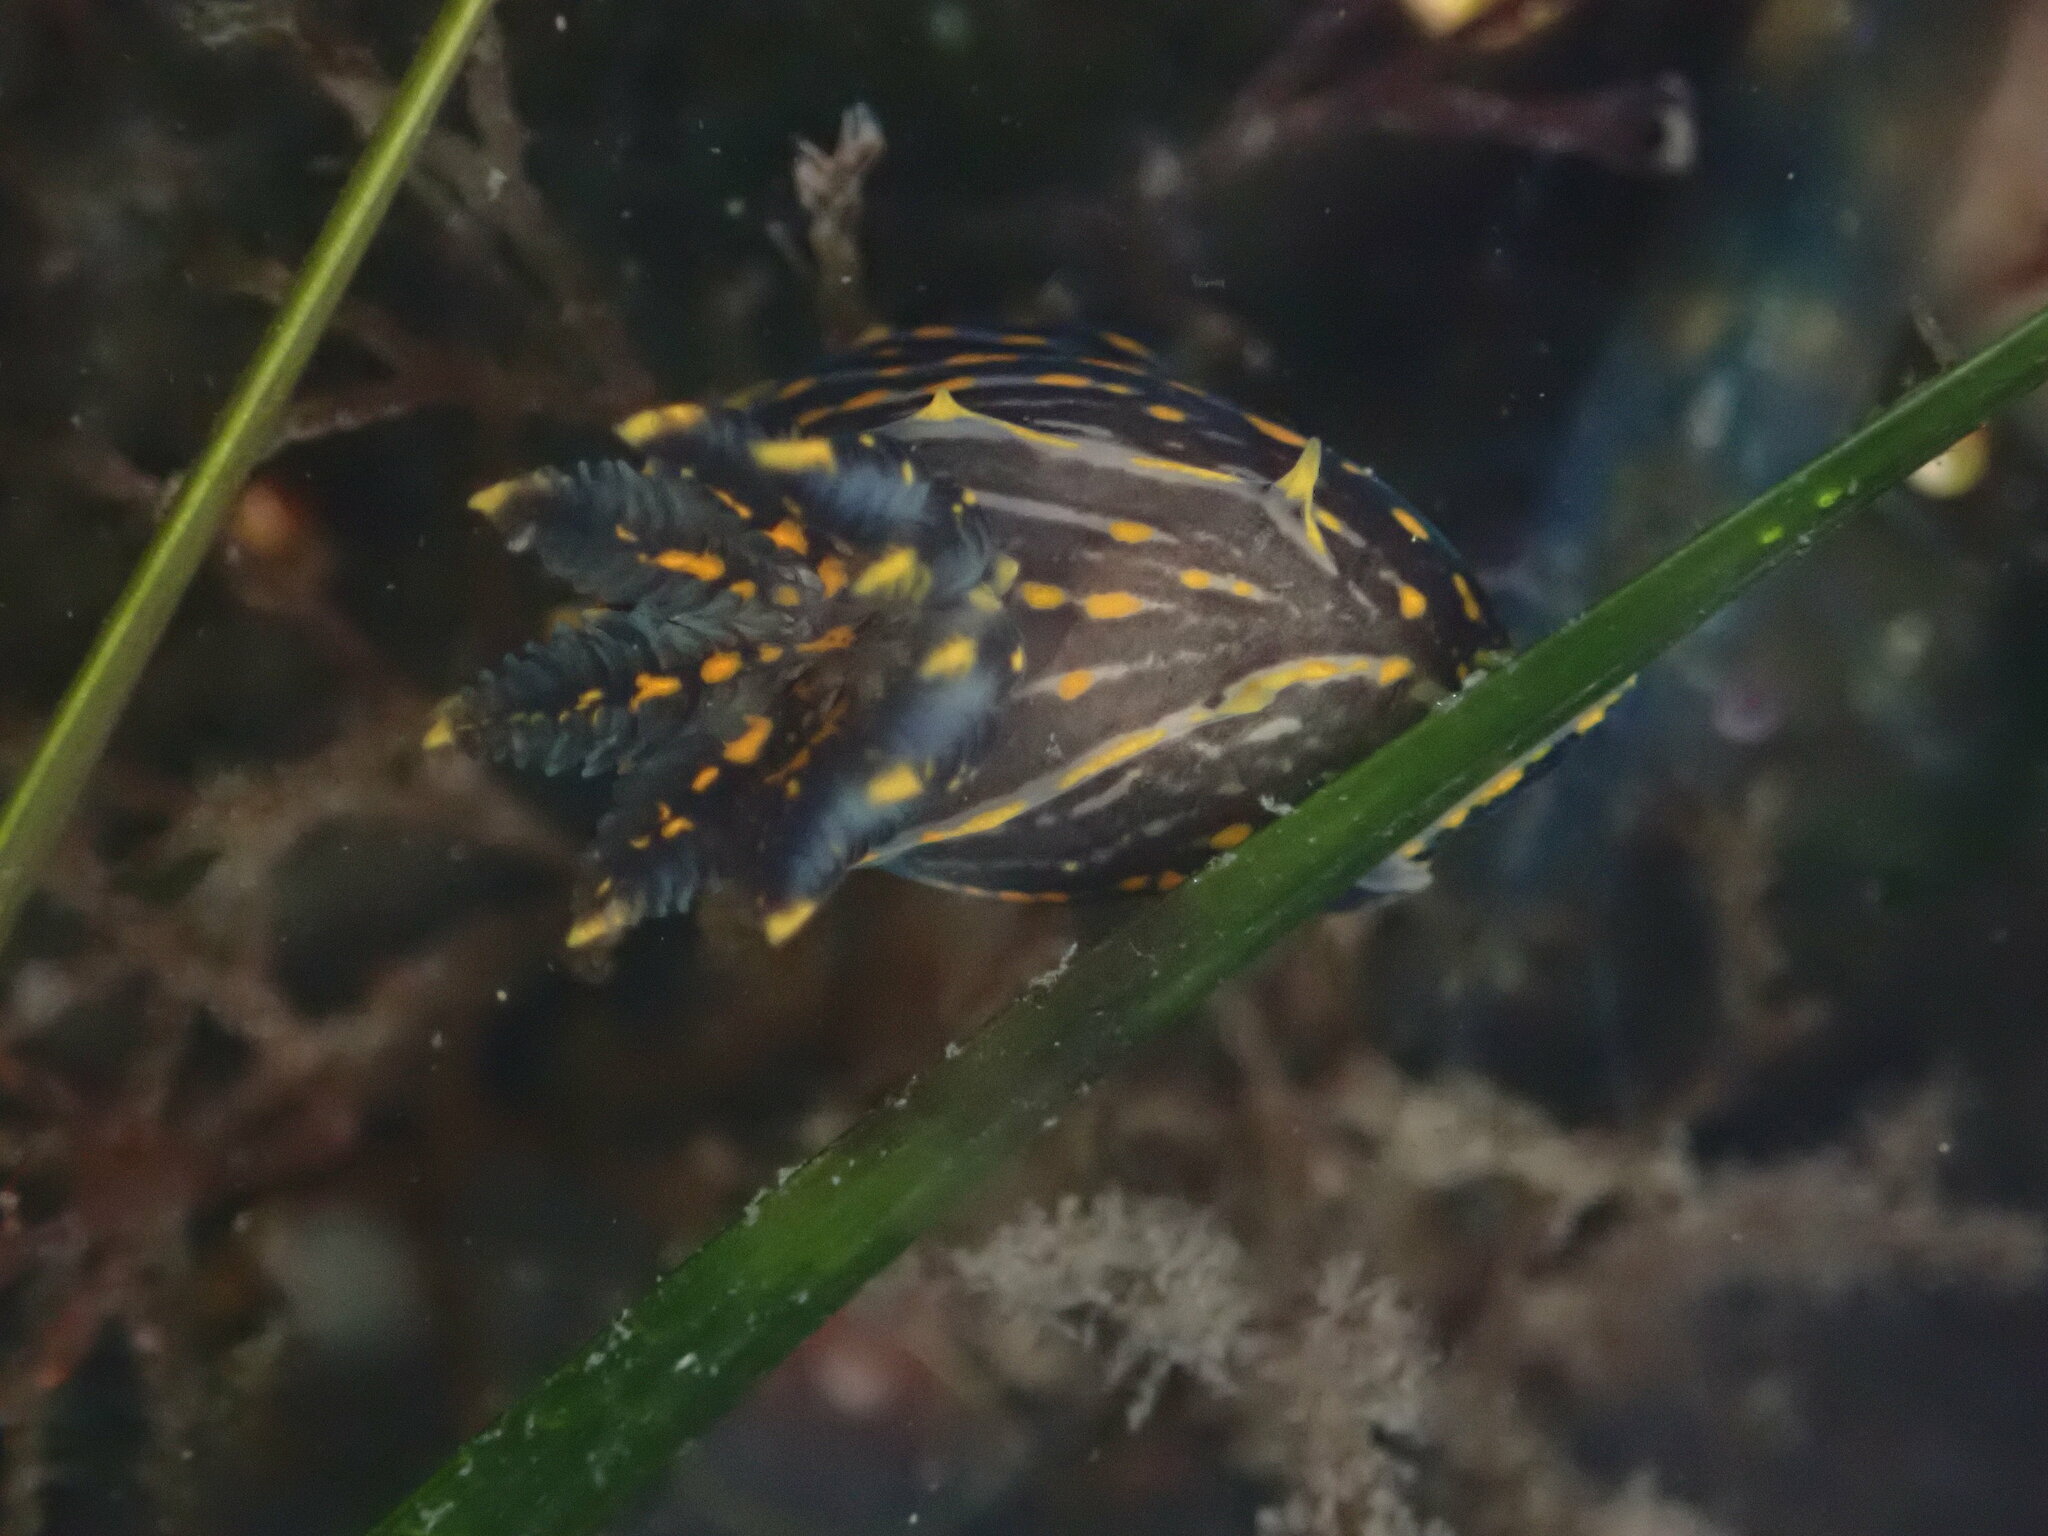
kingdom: Animalia
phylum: Mollusca
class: Gastropoda
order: Nudibranchia
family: Polyceridae
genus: Polycera
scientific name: Polycera atra
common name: Orange-spike polycera
